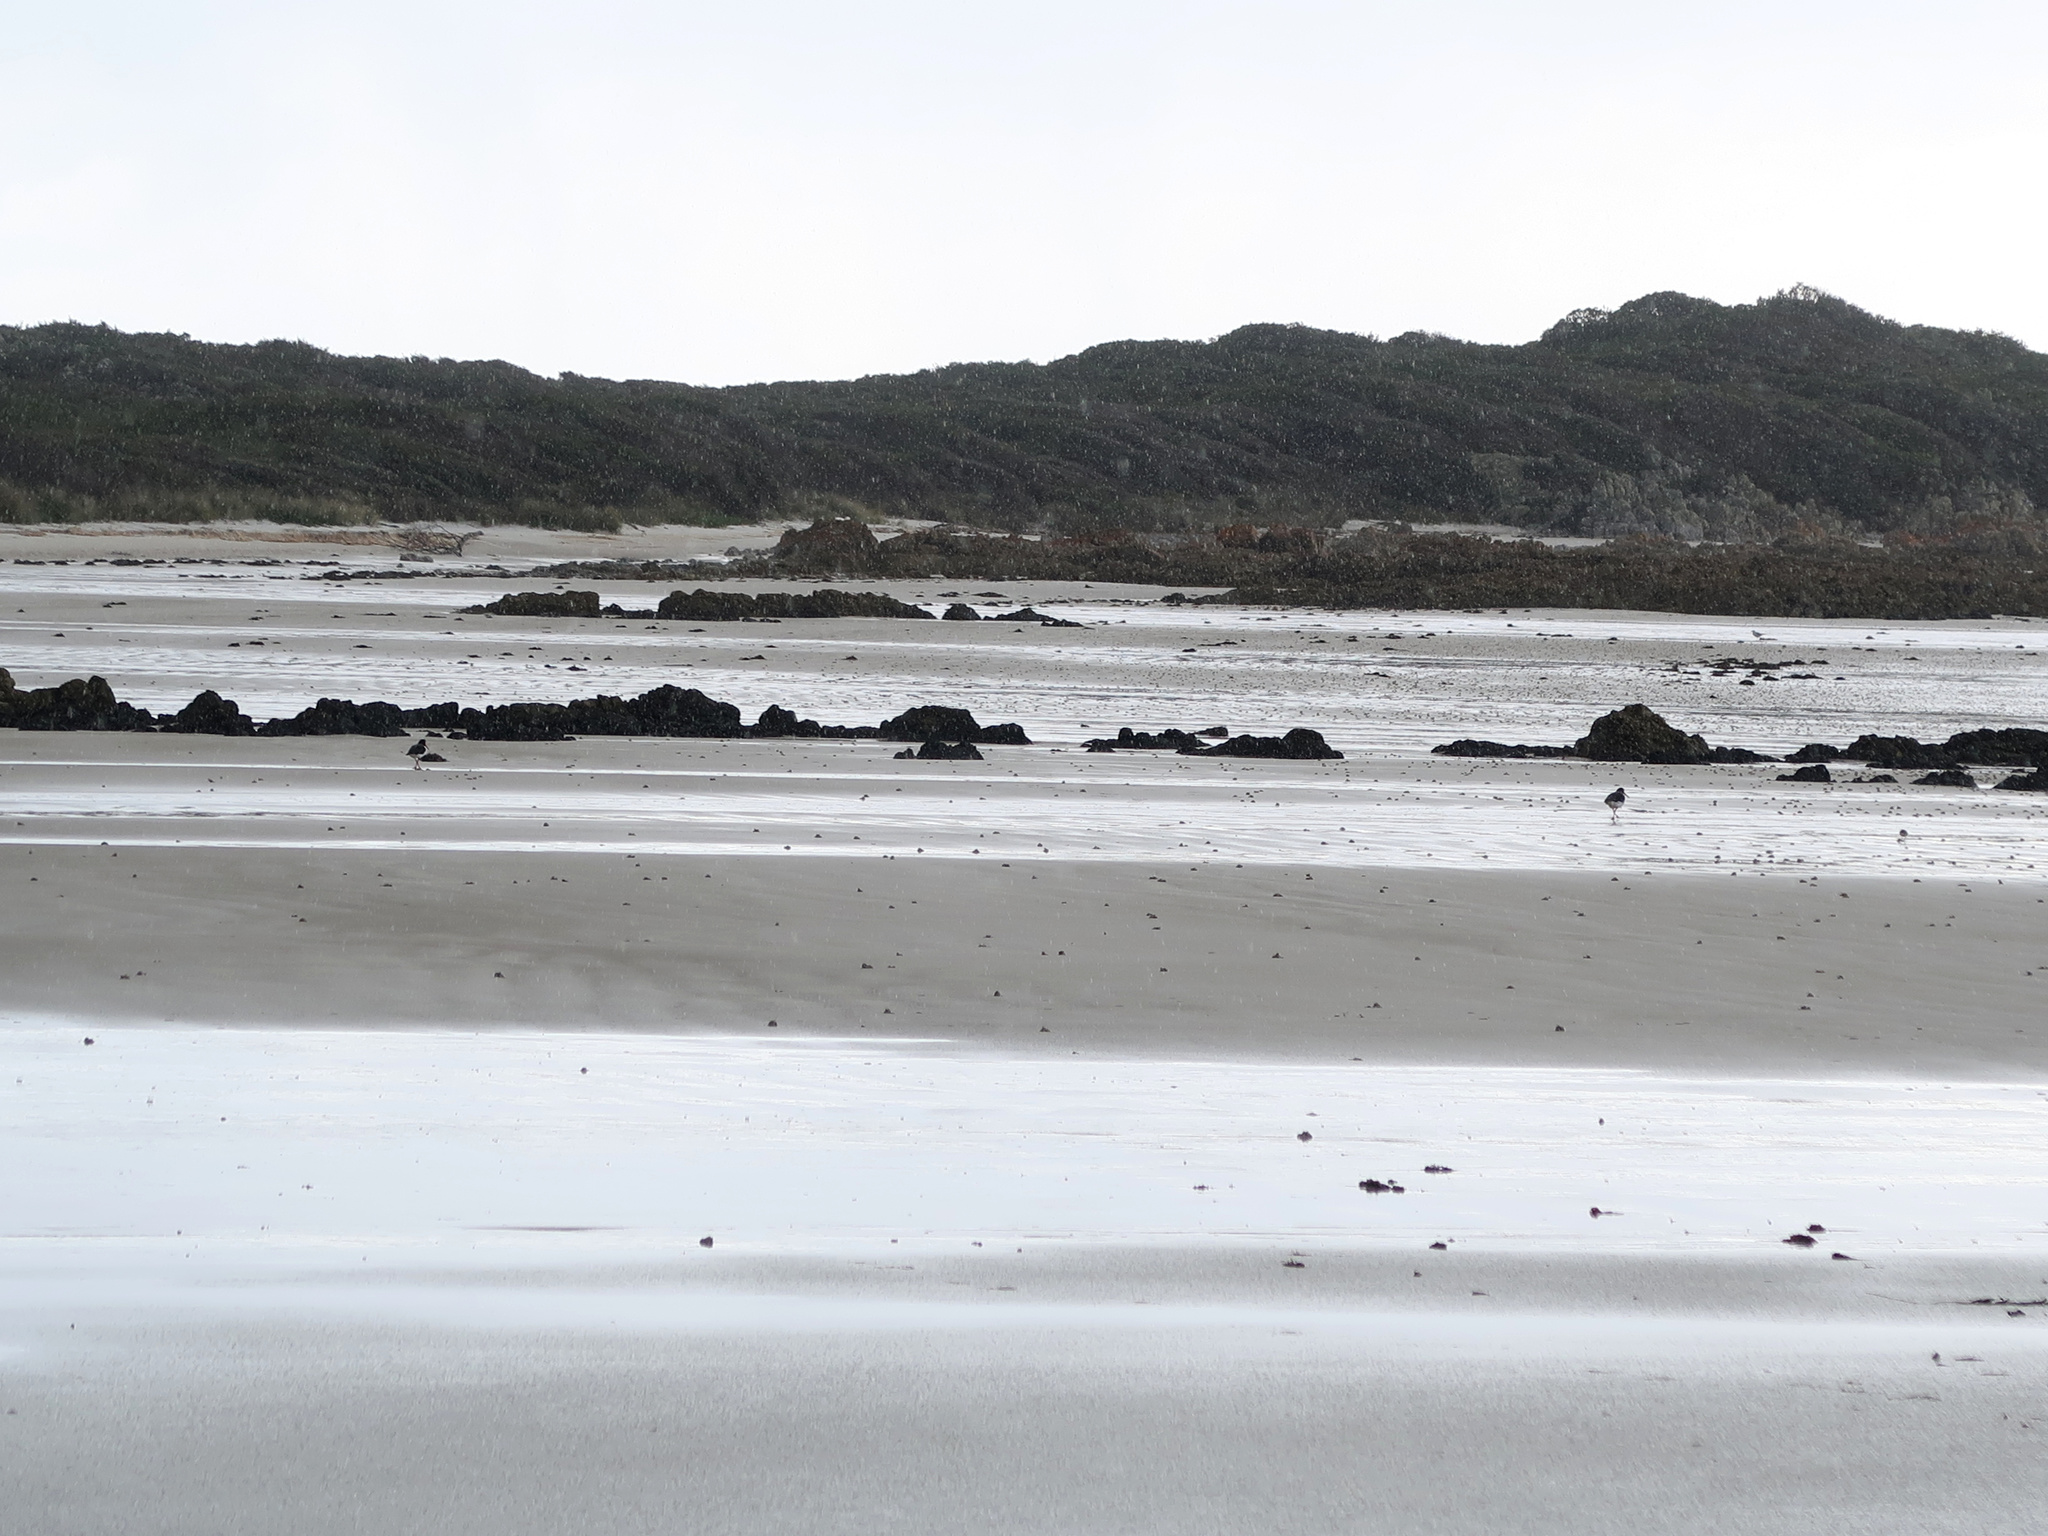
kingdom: Animalia
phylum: Chordata
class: Aves
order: Charadriiformes
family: Haematopodidae
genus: Haematopus
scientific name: Haematopus longirostris
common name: Pied oystercatcher
